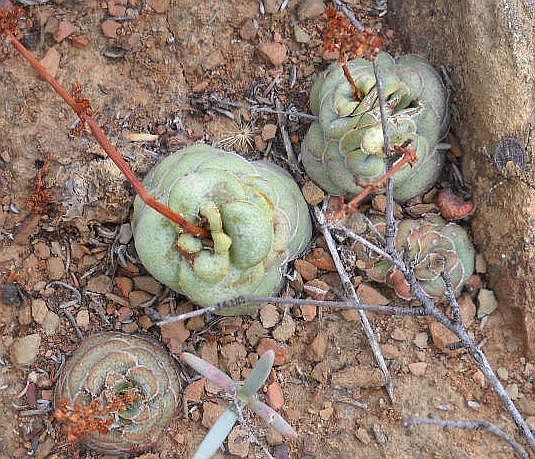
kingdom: Plantae
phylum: Tracheophyta
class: Magnoliopsida
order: Saxifragales
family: Crassulaceae
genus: Crassula
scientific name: Crassula hemisphaerica
